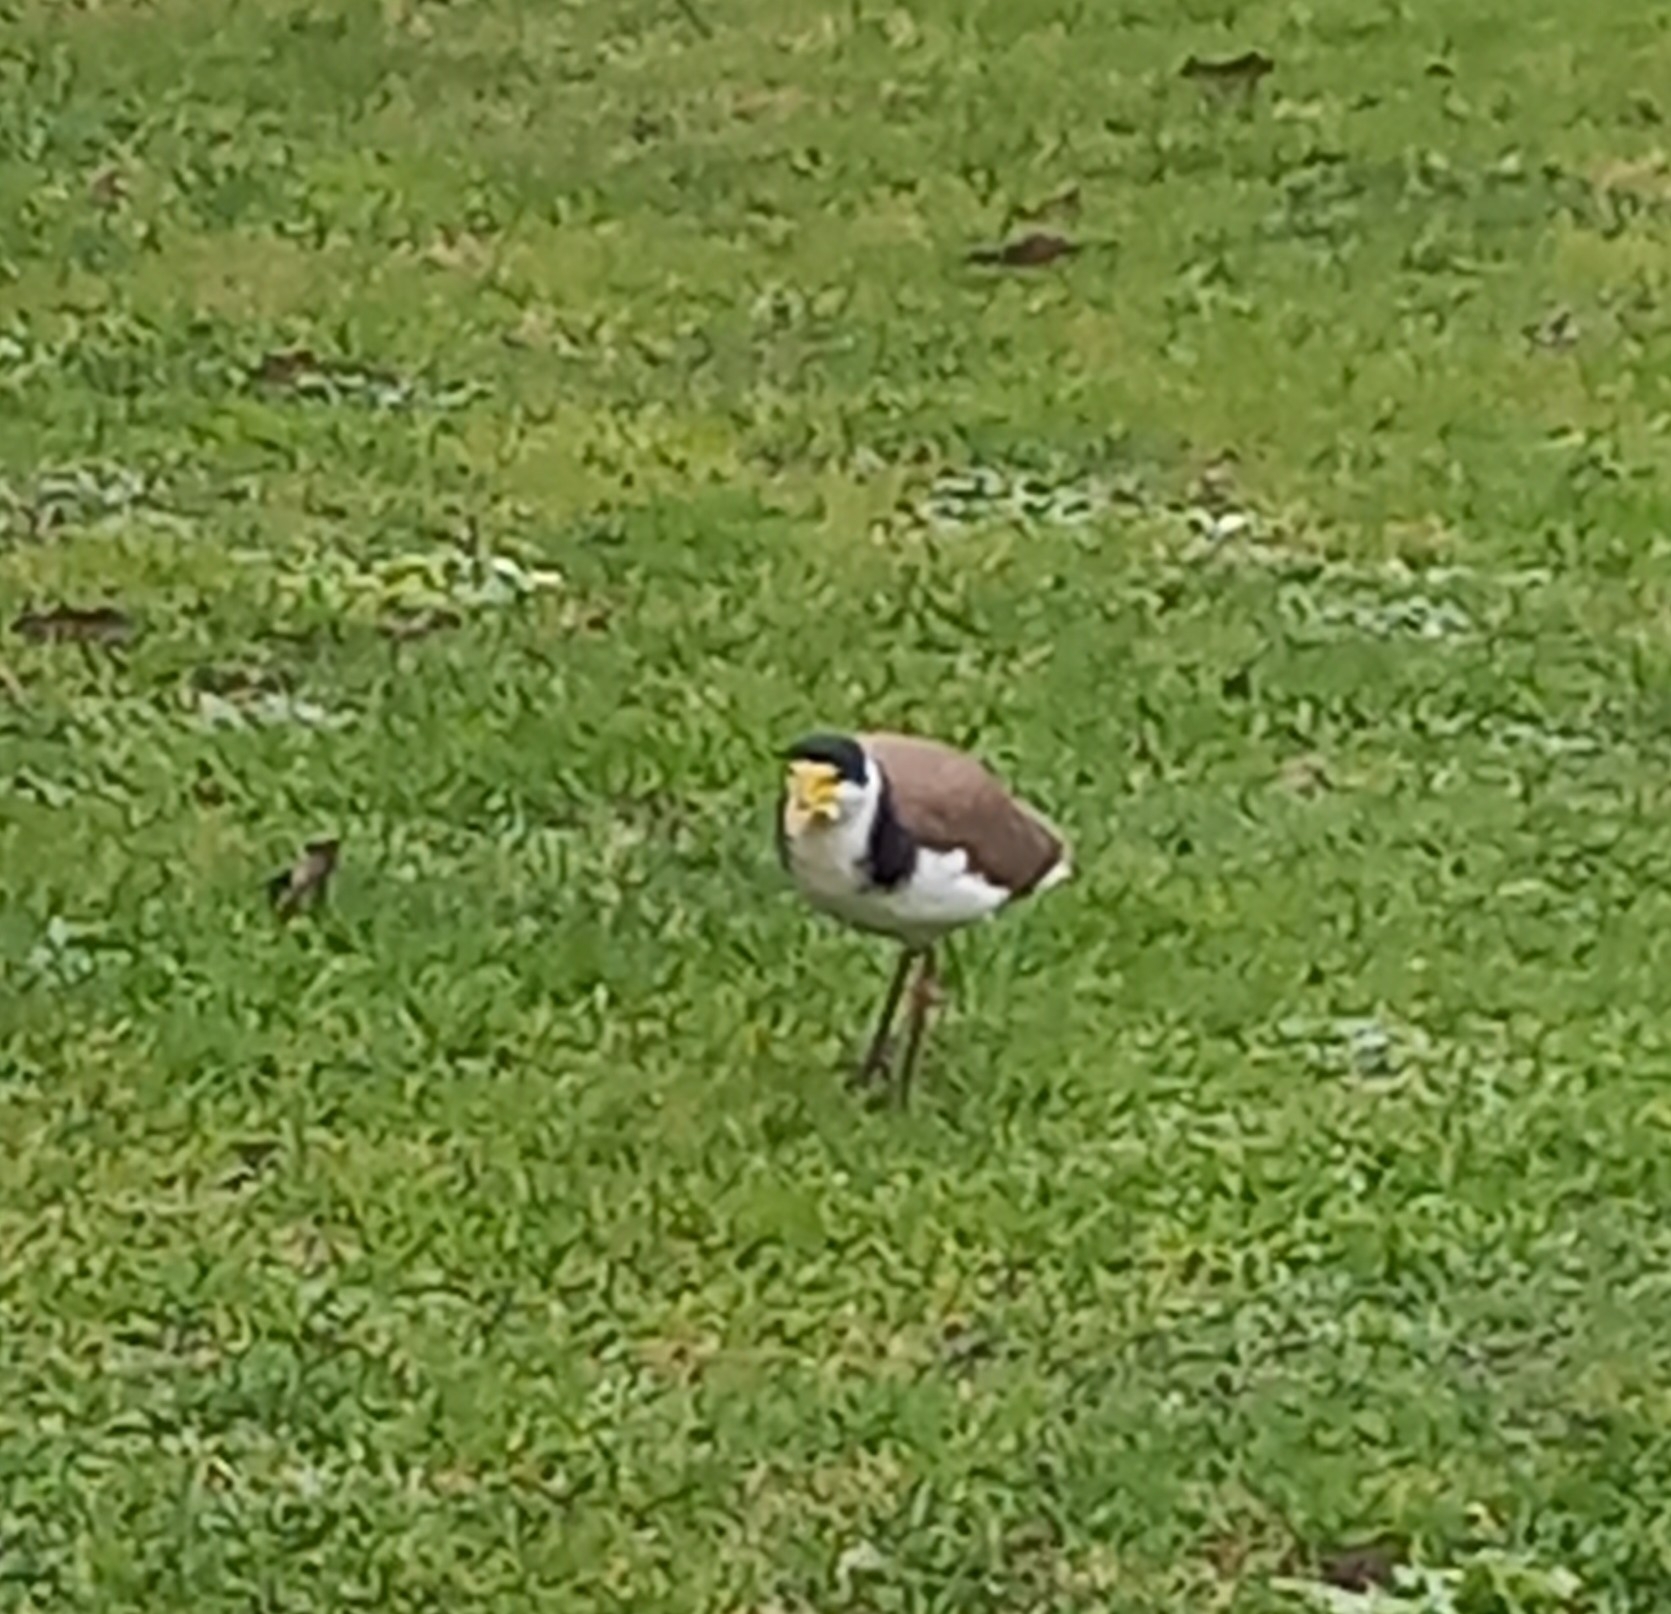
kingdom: Animalia
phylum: Chordata
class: Aves
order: Charadriiformes
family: Charadriidae
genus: Vanellus
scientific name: Vanellus miles
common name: Masked lapwing
